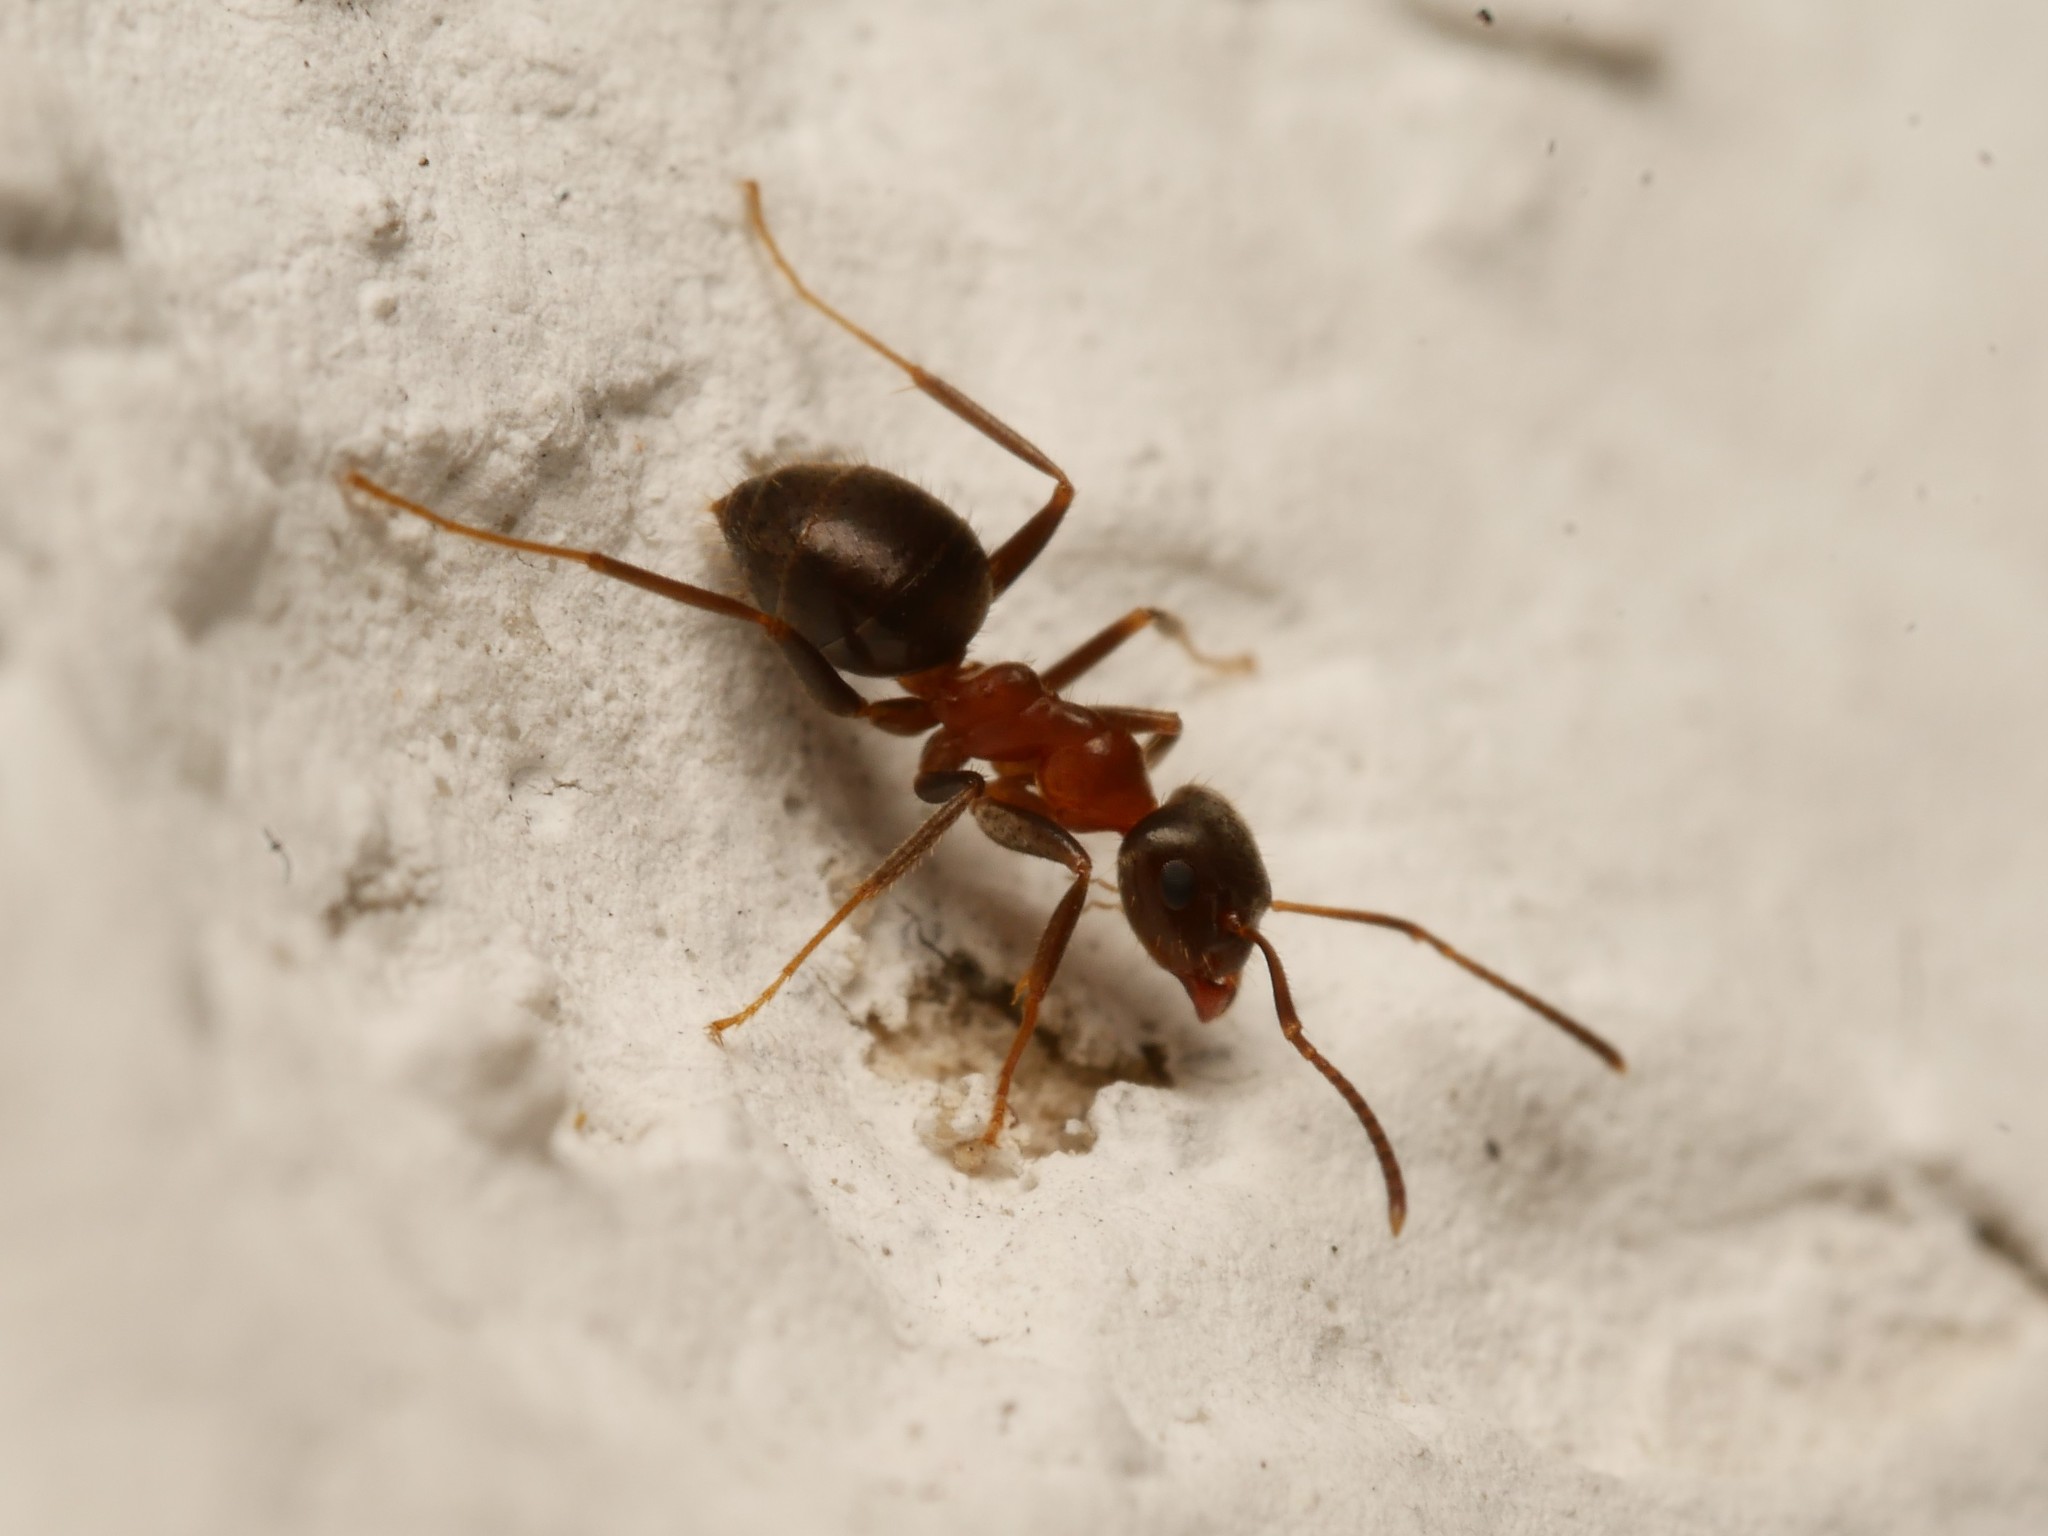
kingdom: Animalia
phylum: Arthropoda
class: Insecta
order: Hymenoptera
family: Formicidae
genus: Lasius
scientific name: Lasius emarginatus
